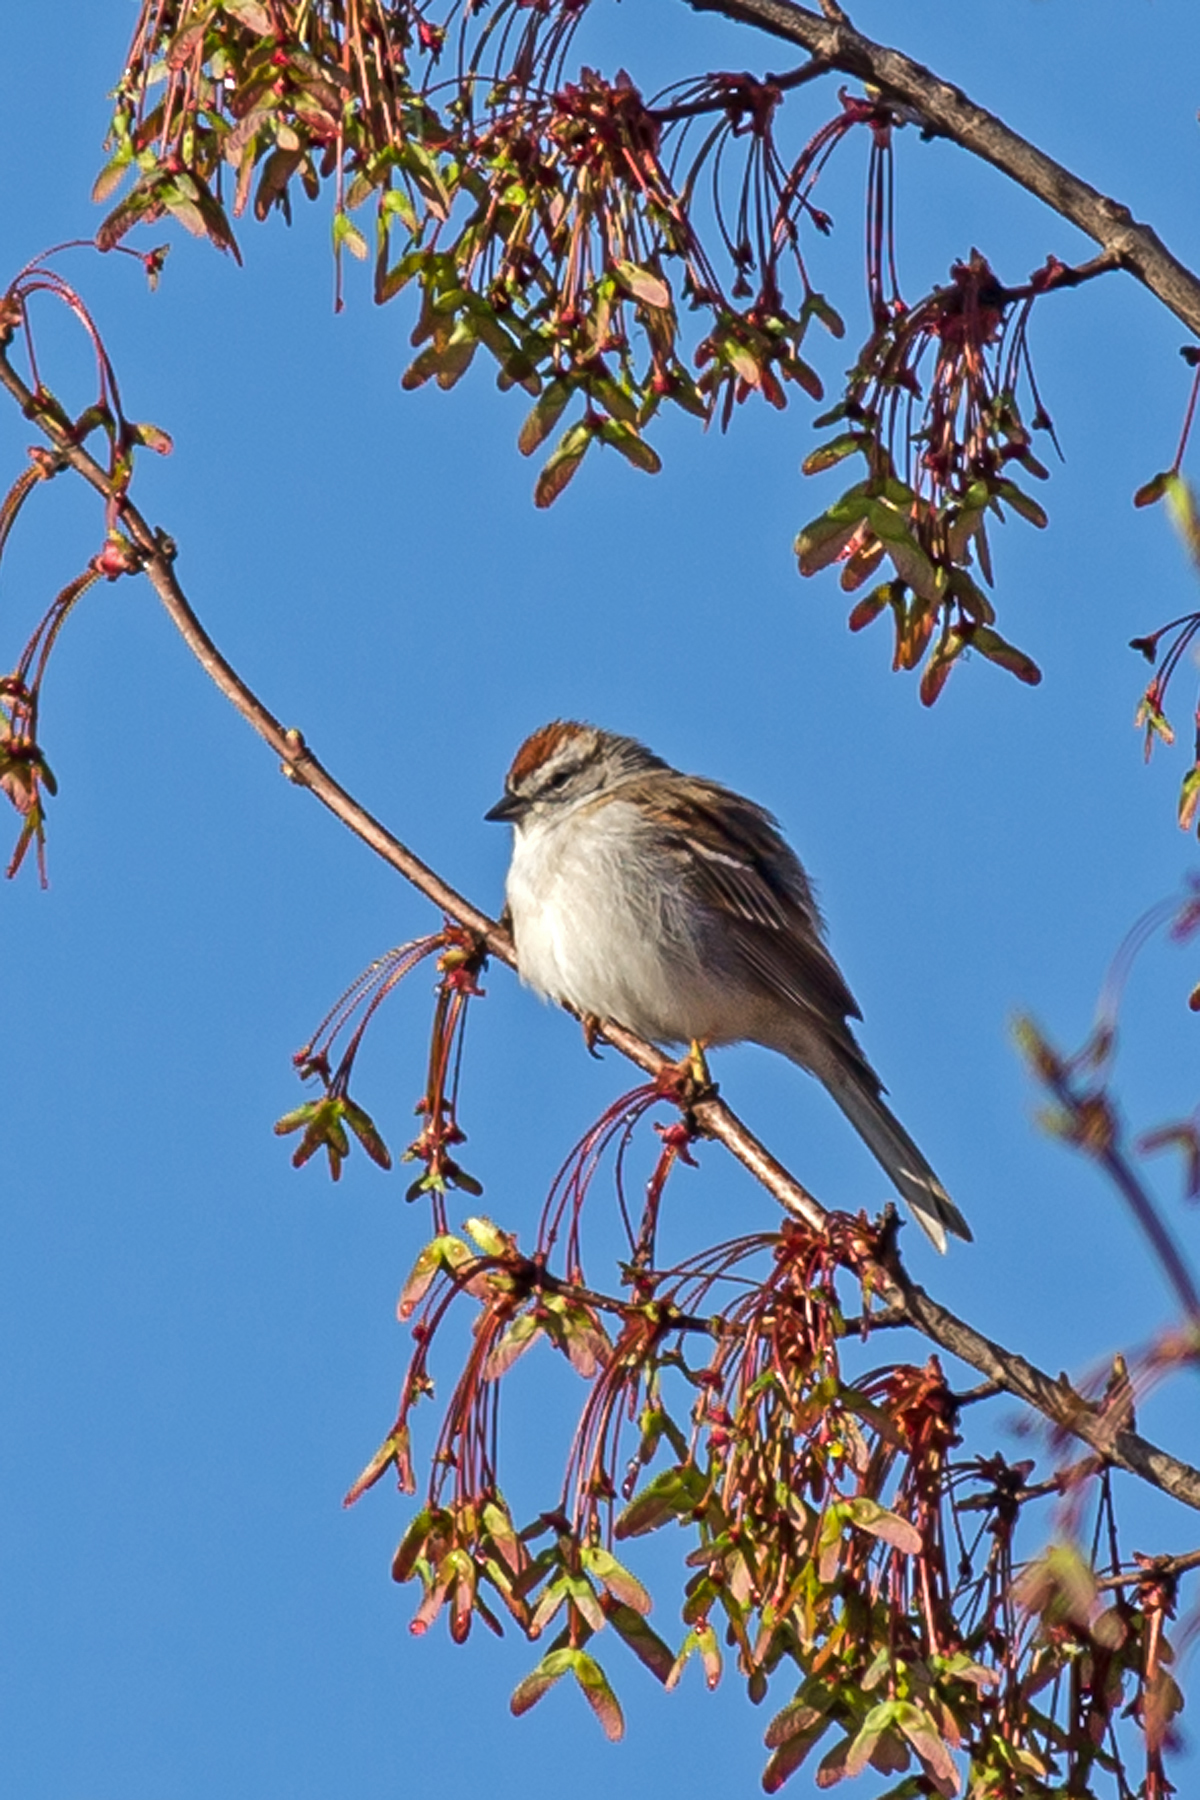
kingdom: Animalia
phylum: Chordata
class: Aves
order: Passeriformes
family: Passerellidae
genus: Spizella
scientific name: Spizella passerina
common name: Chipping sparrow
